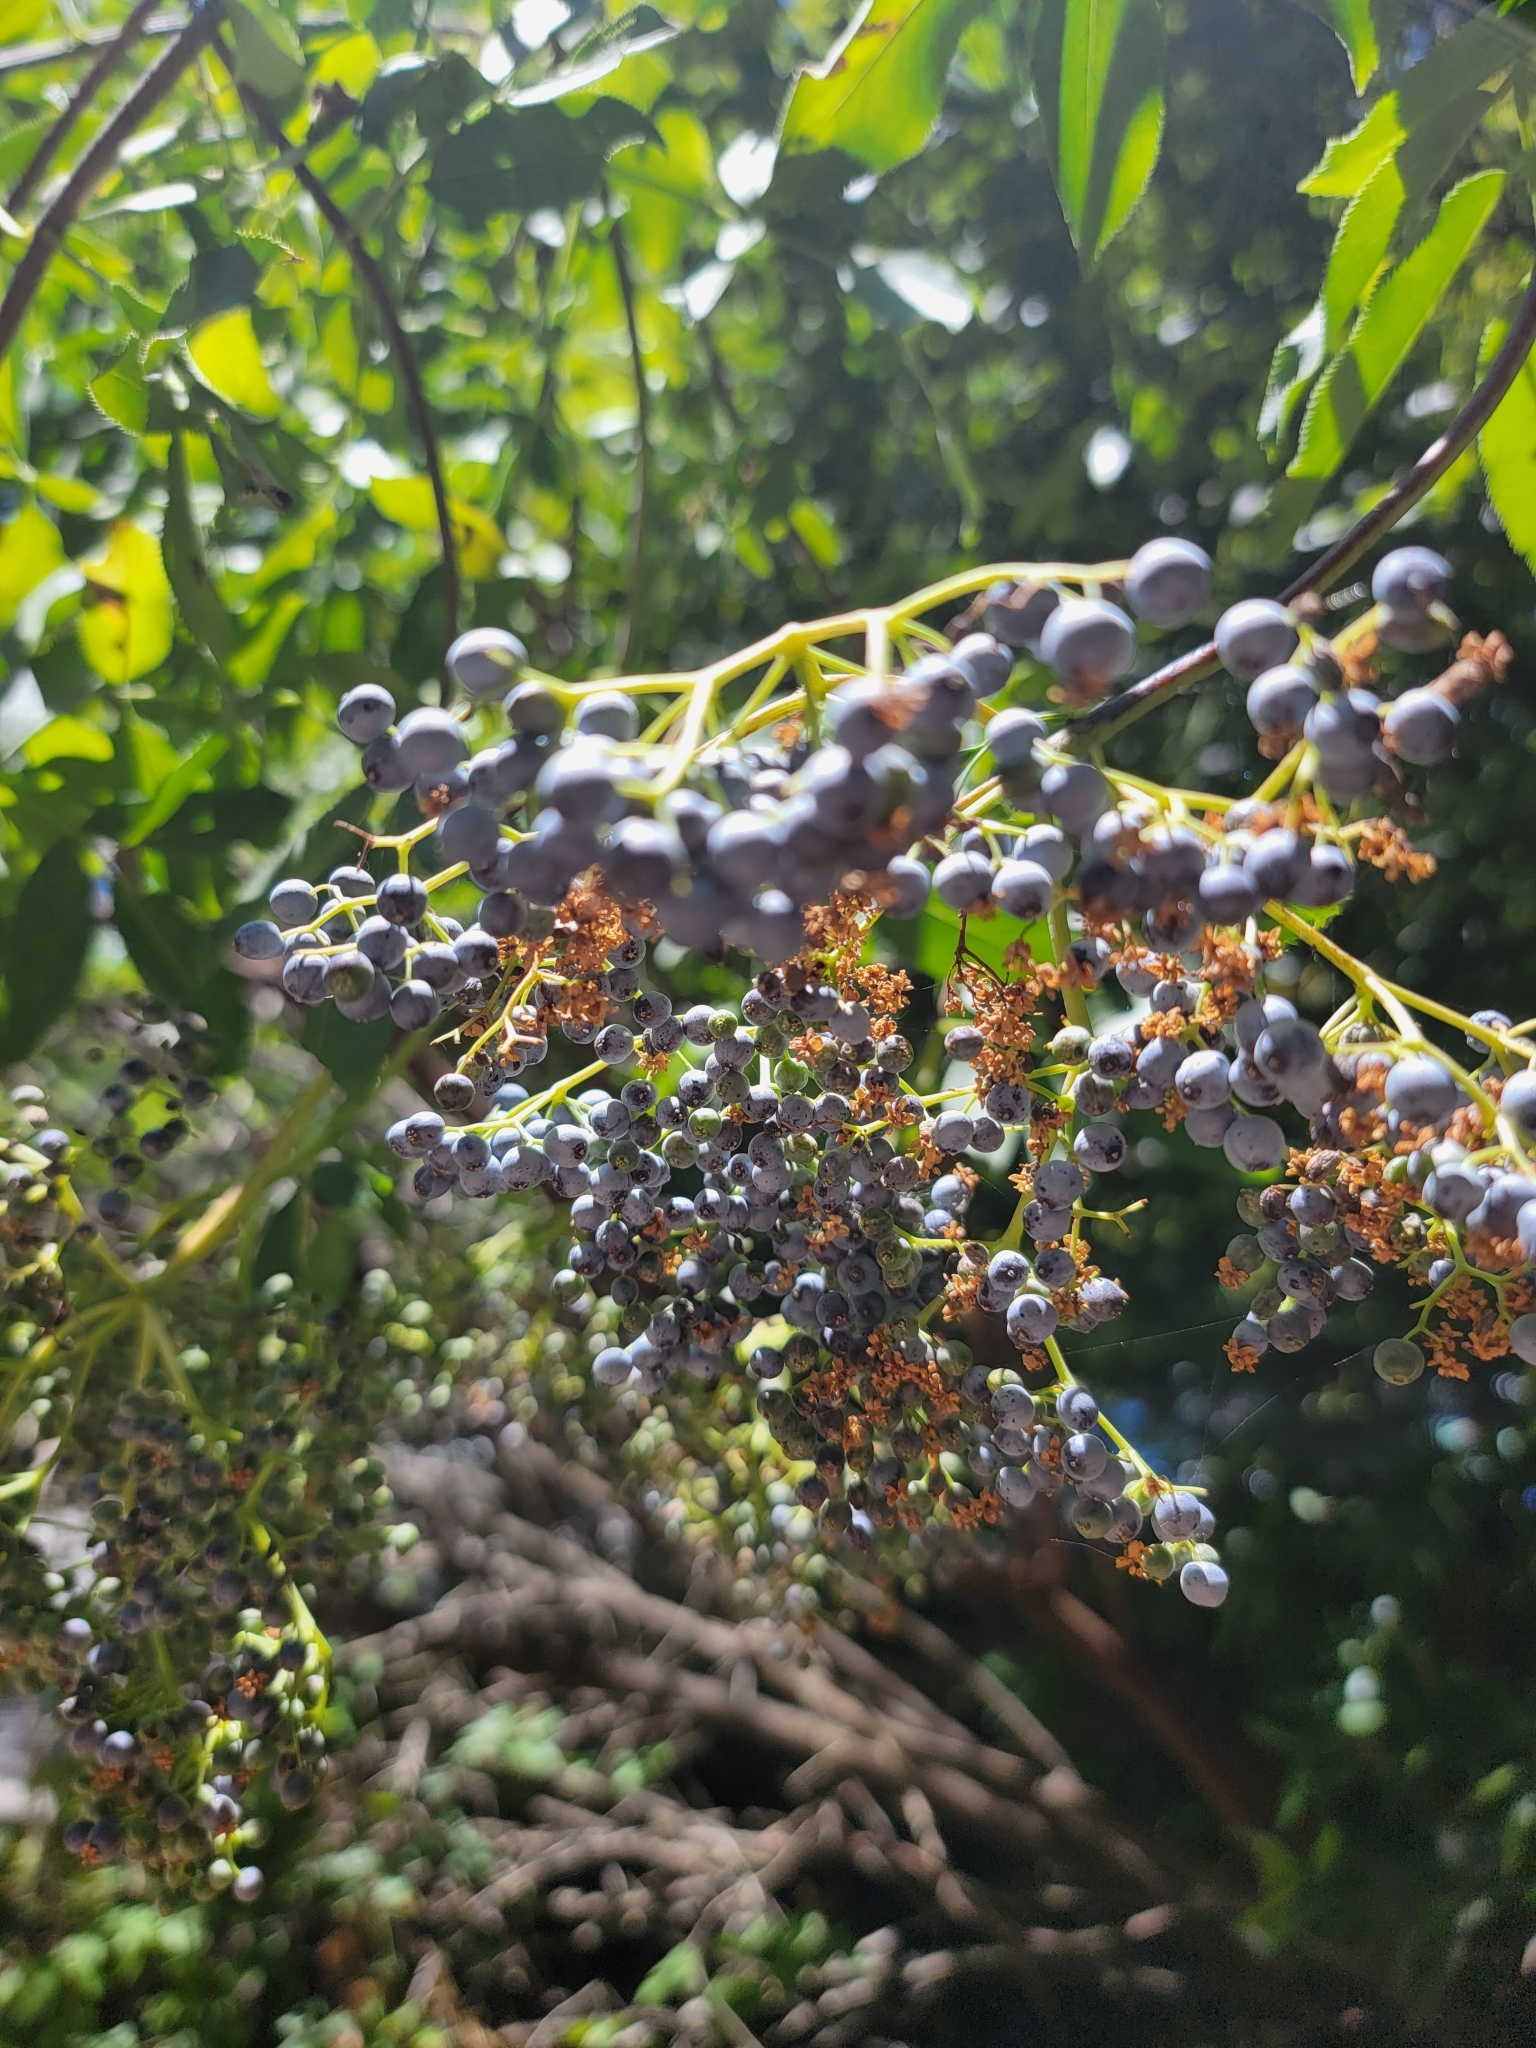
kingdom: Plantae
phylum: Tracheophyta
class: Magnoliopsida
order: Dipsacales
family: Viburnaceae
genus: Sambucus
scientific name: Sambucus cerulea
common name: Blue elder
